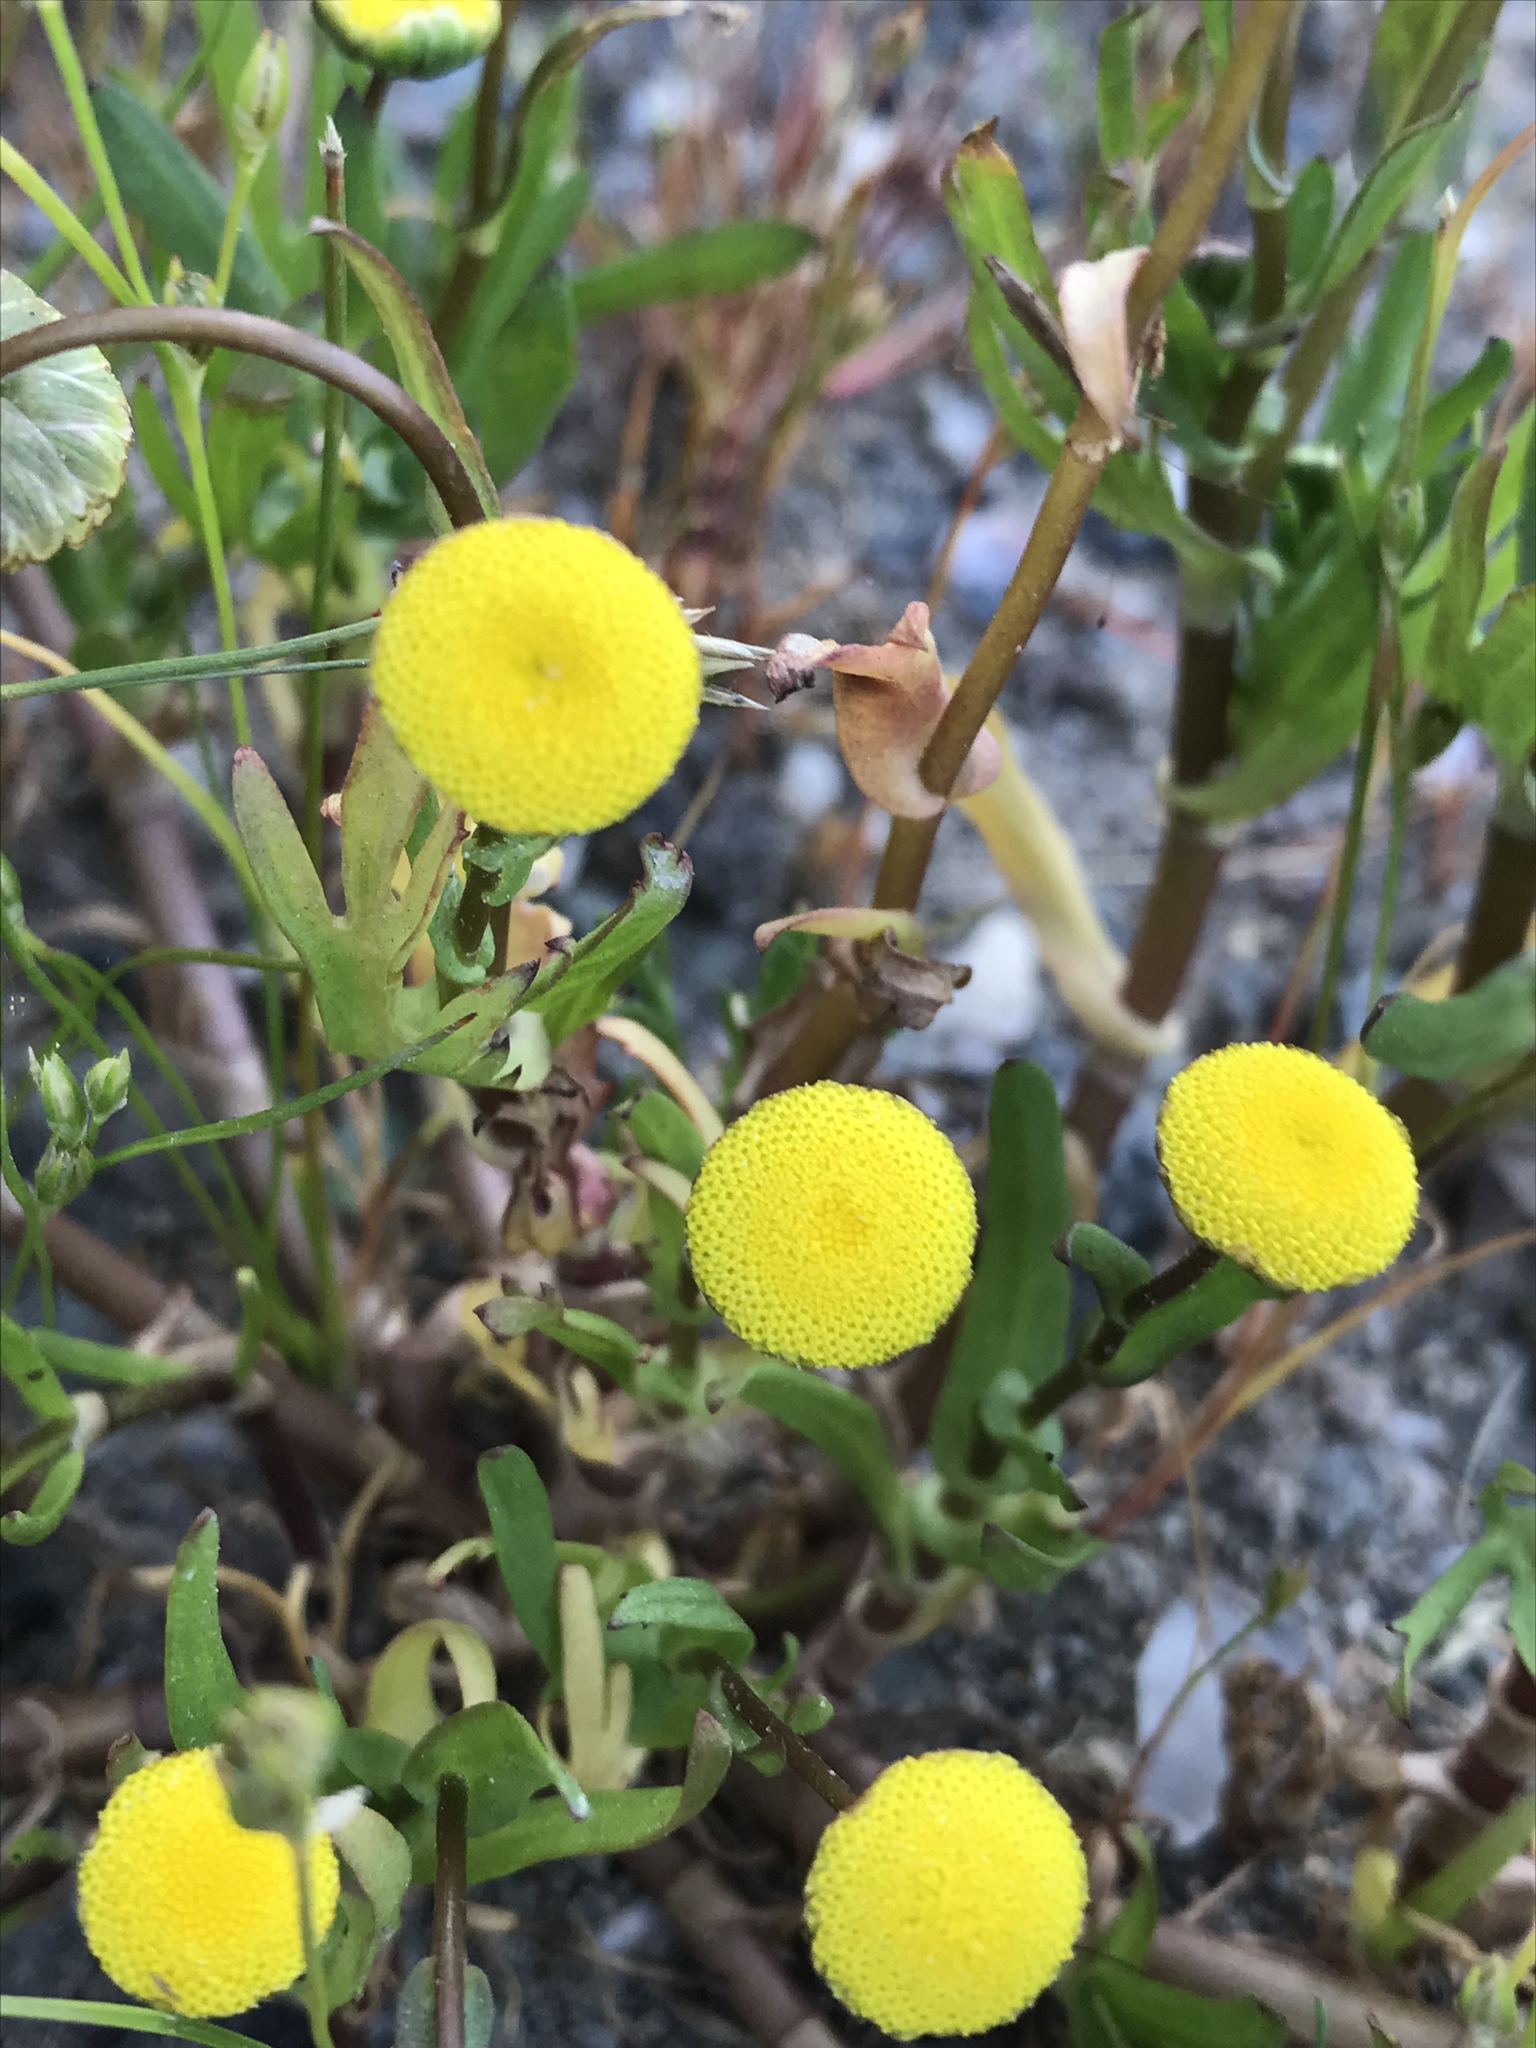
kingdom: Plantae
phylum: Tracheophyta
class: Magnoliopsida
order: Asterales
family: Asteraceae
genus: Cotula
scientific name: Cotula coronopifolia
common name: Buttonweed
